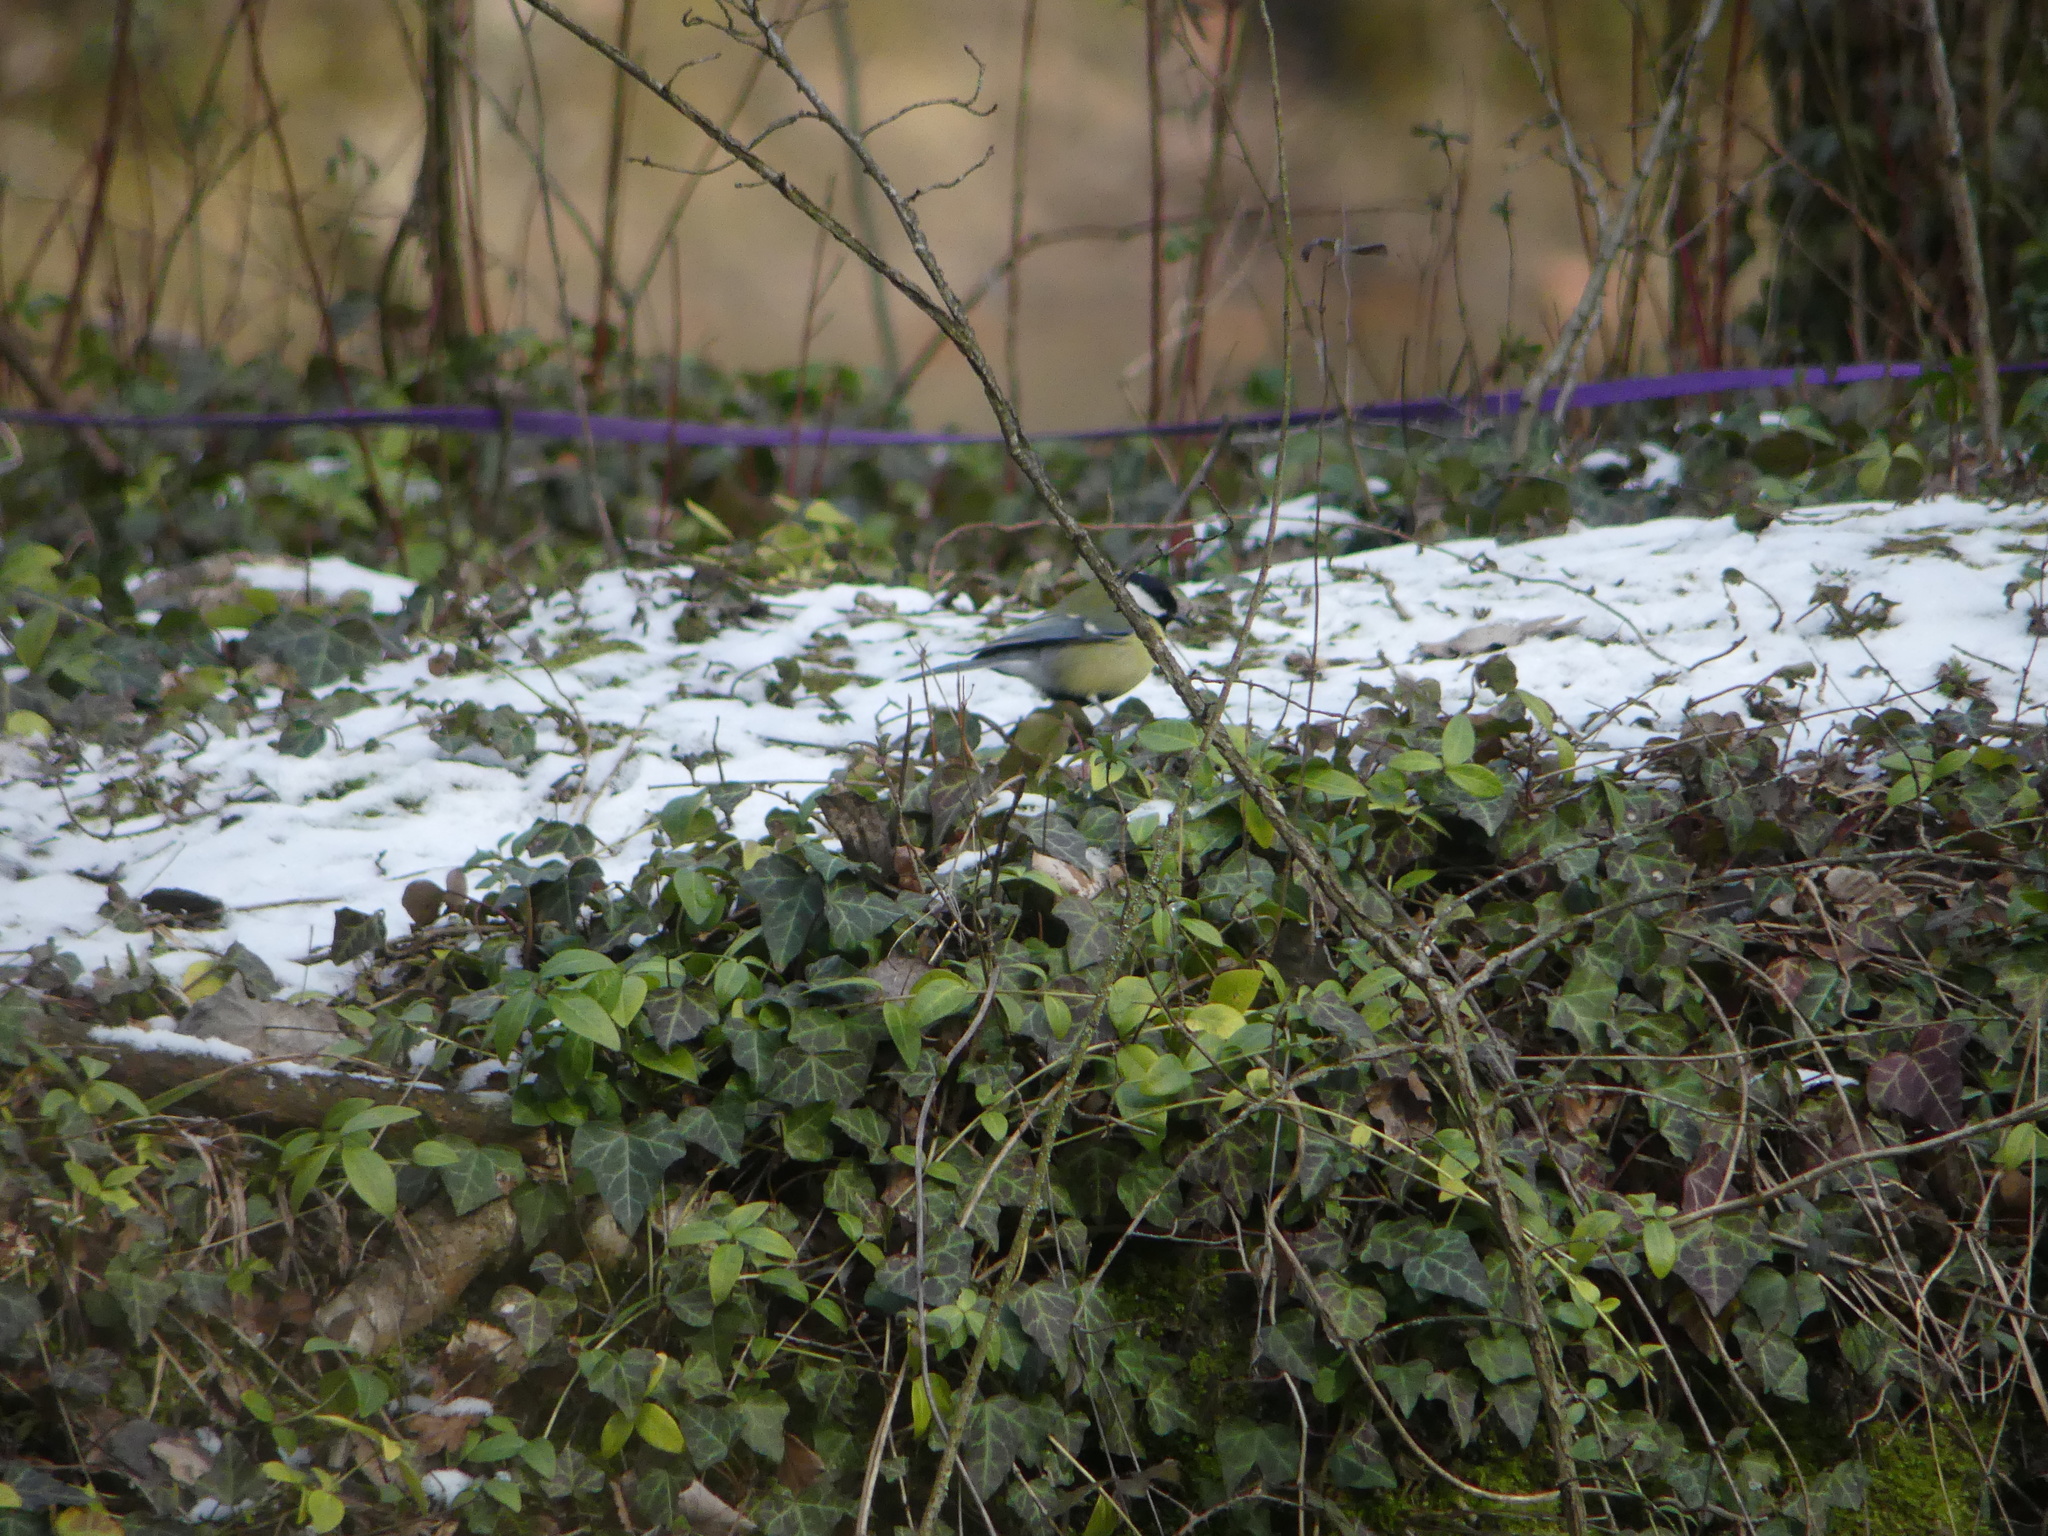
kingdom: Animalia
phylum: Chordata
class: Aves
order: Passeriformes
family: Paridae
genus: Parus
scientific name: Parus major
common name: Great tit
